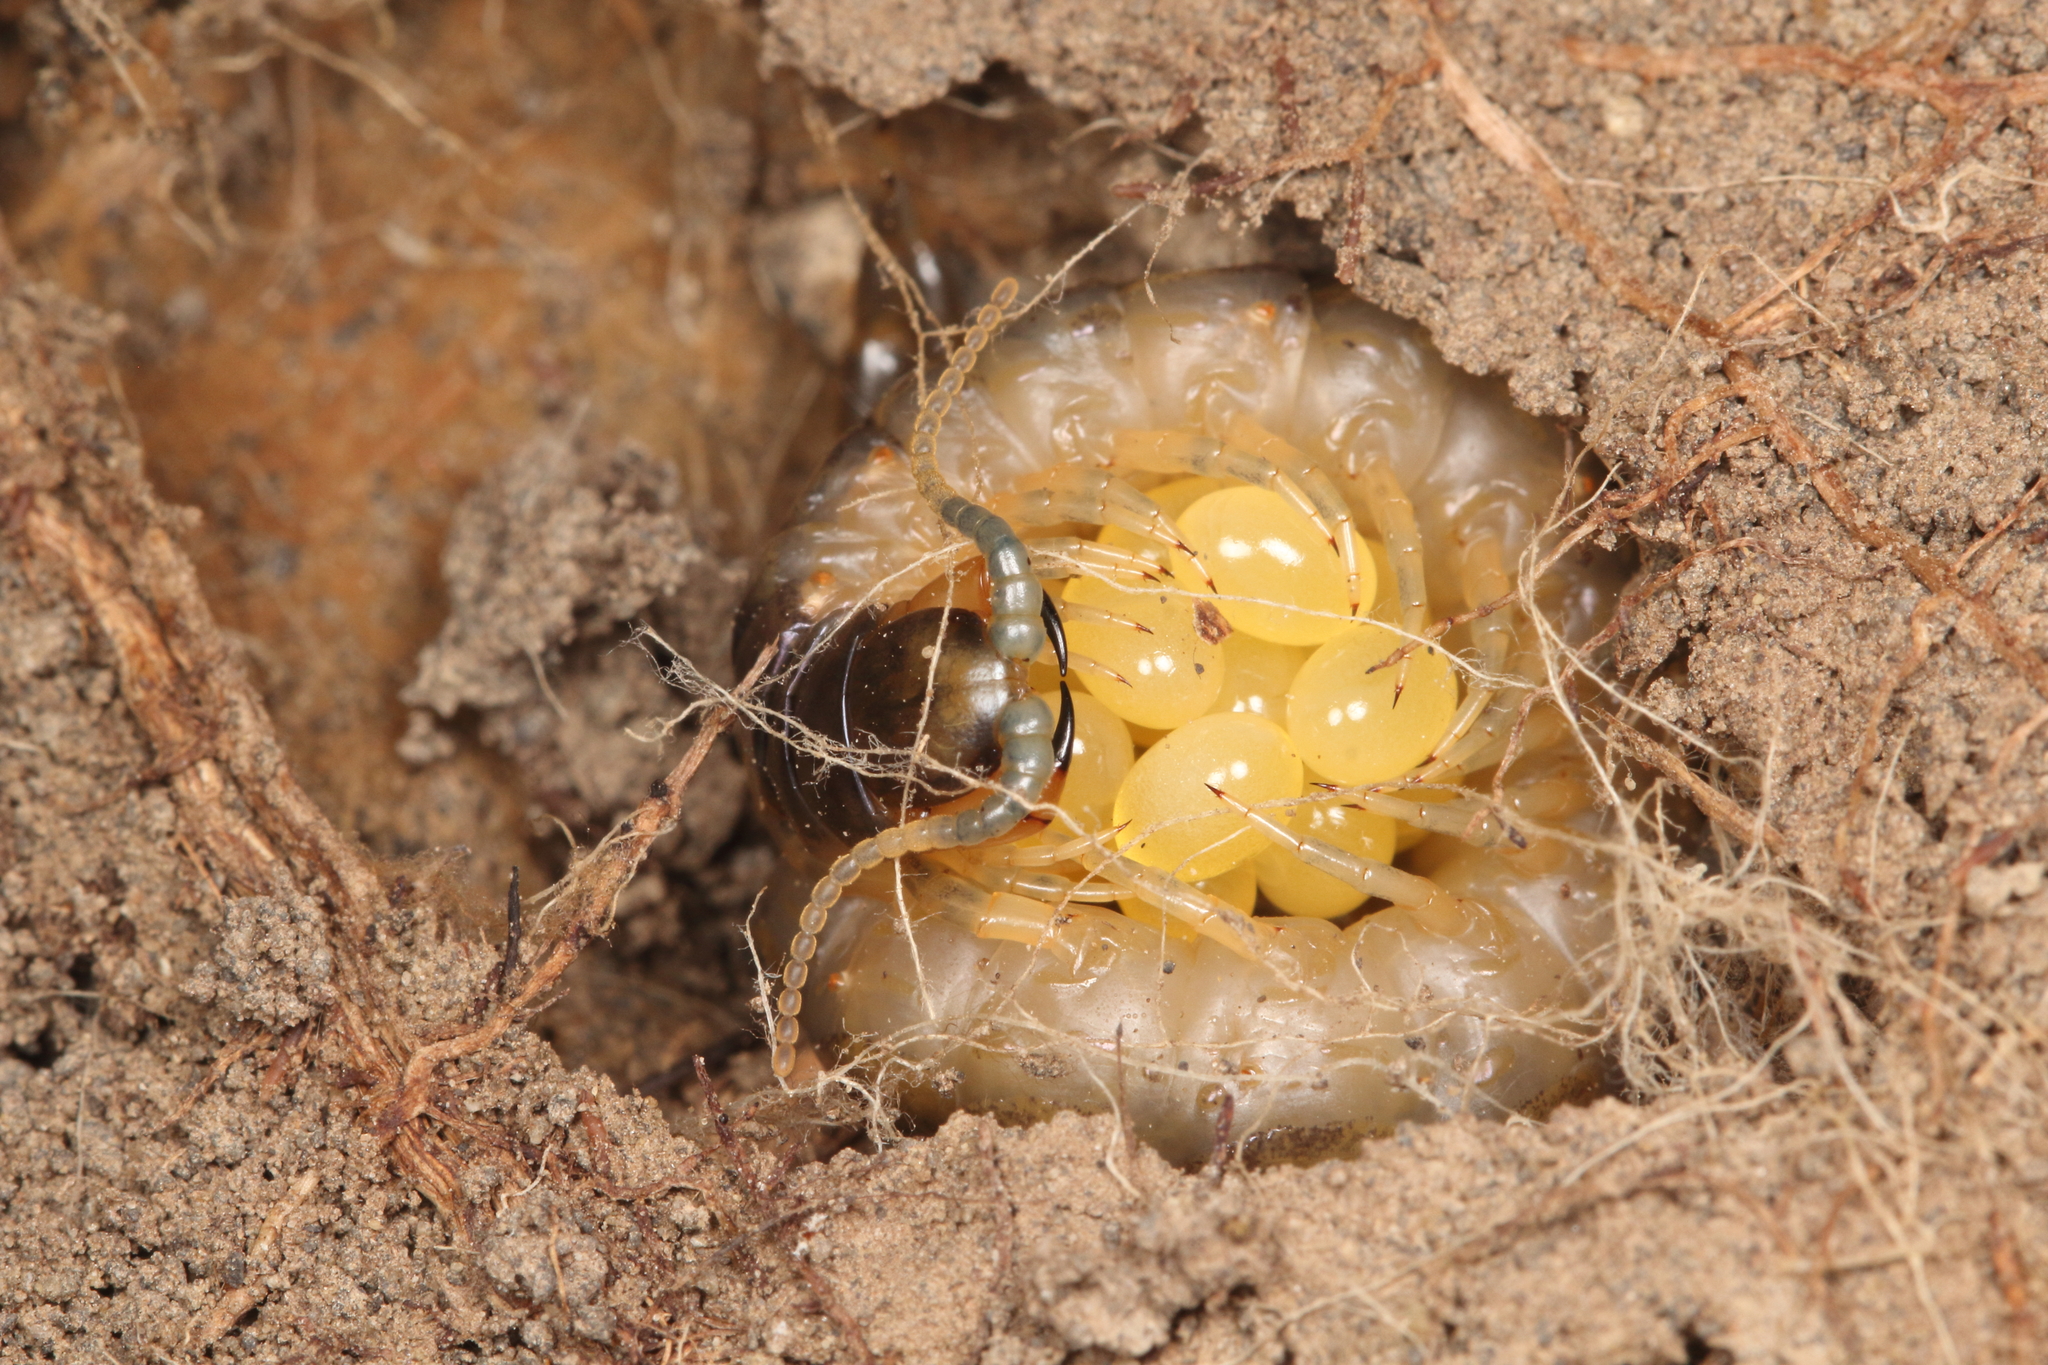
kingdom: Animalia
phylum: Arthropoda
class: Chilopoda
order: Scolopendromorpha
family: Scolopendridae
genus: Cormocephalus
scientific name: Cormocephalus westwoodi
